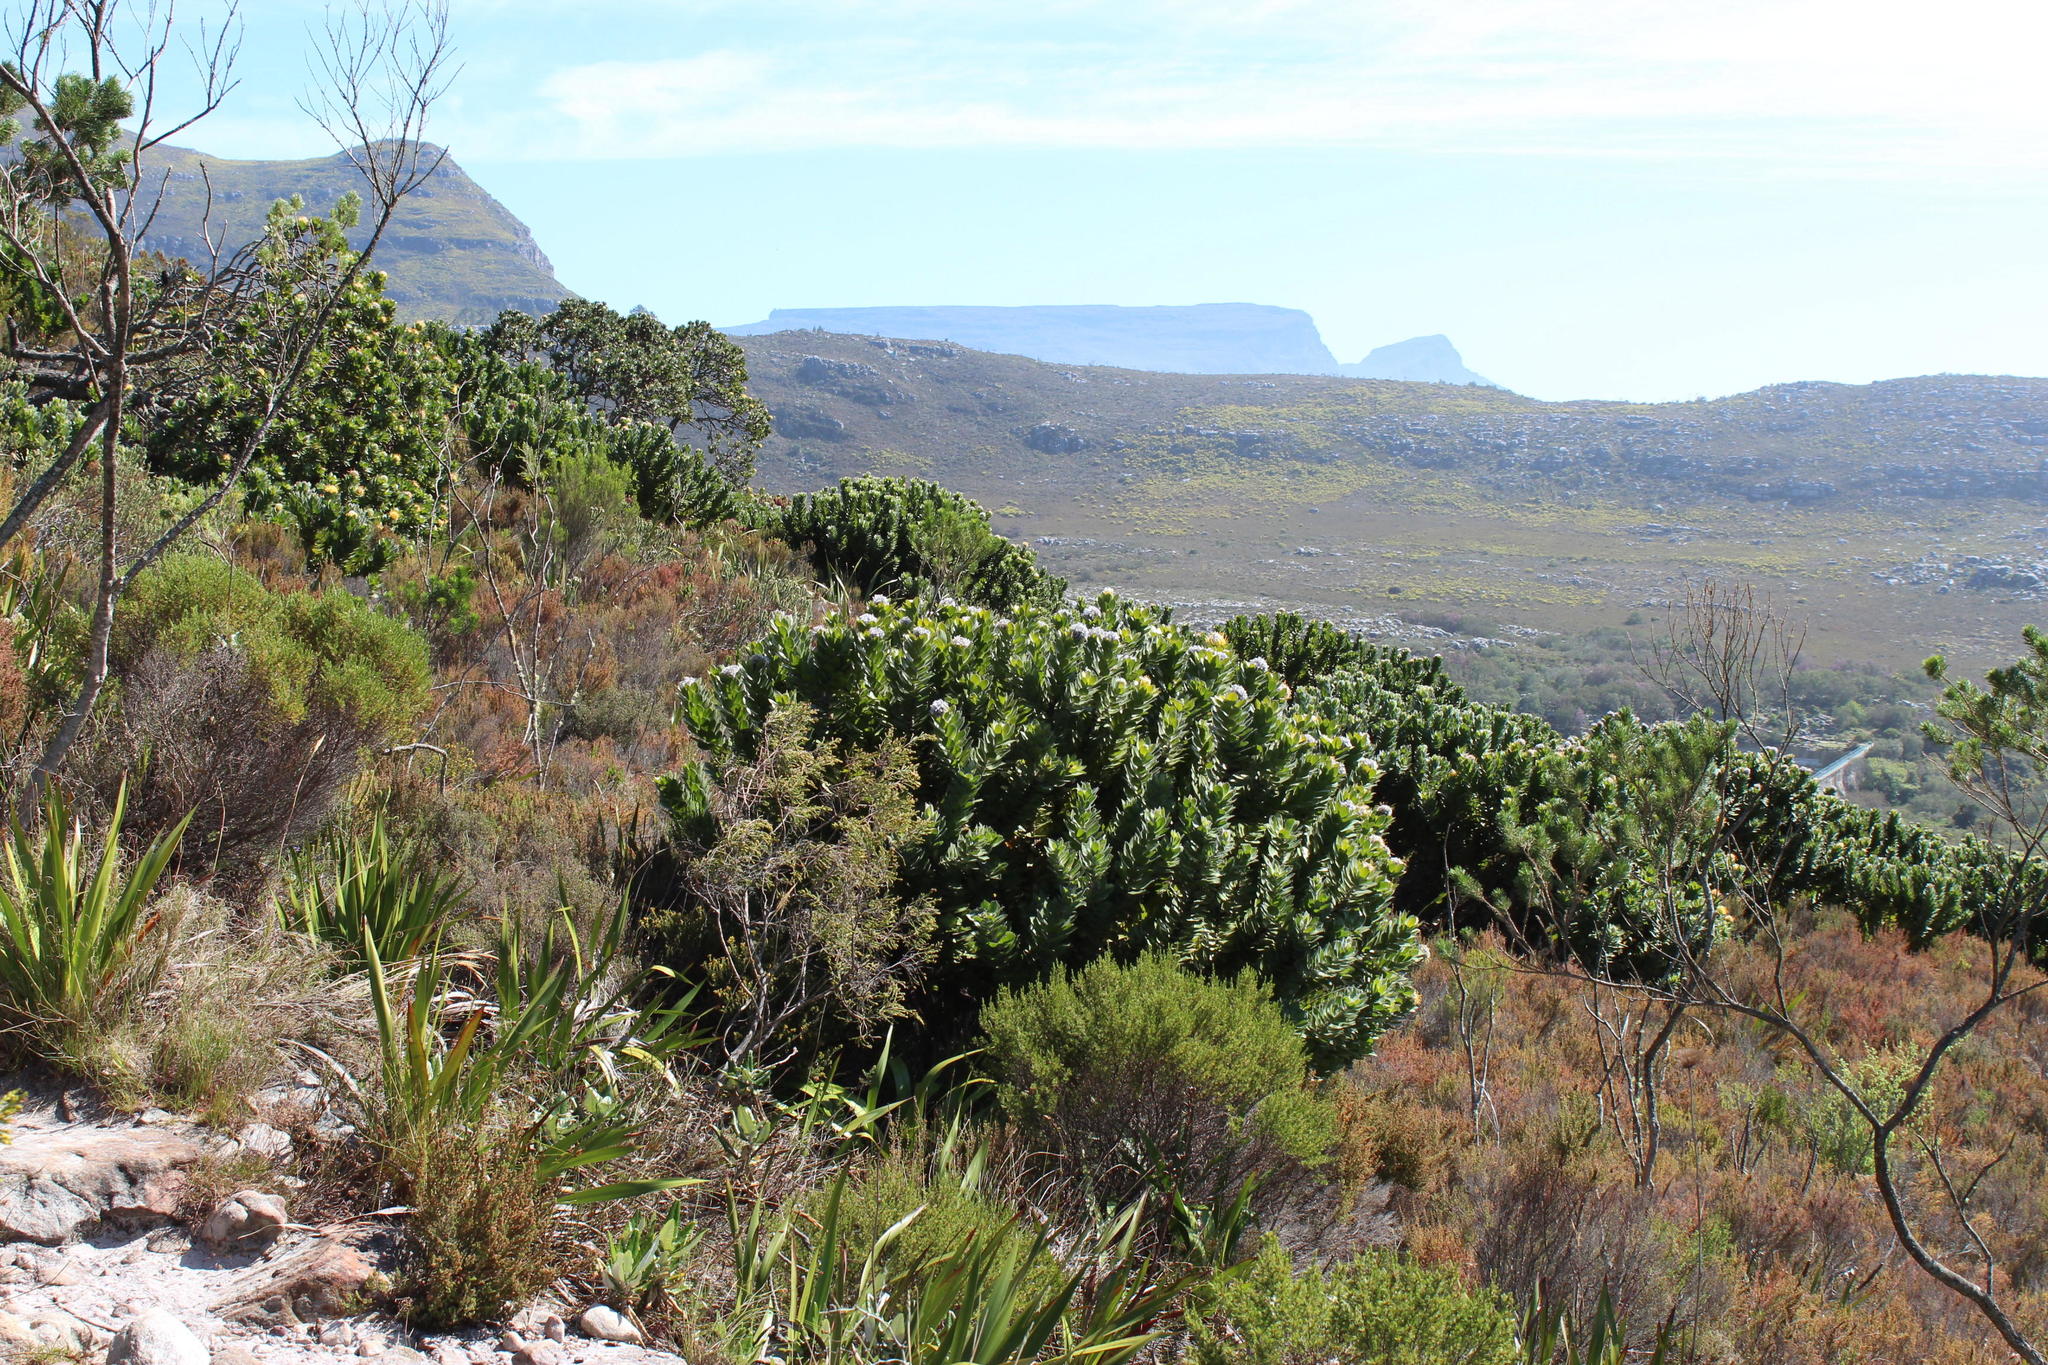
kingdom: Plantae
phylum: Tracheophyta
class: Magnoliopsida
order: Proteales
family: Proteaceae
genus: Leucospermum
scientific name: Leucospermum conocarpodendron
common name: Tree pincushion
